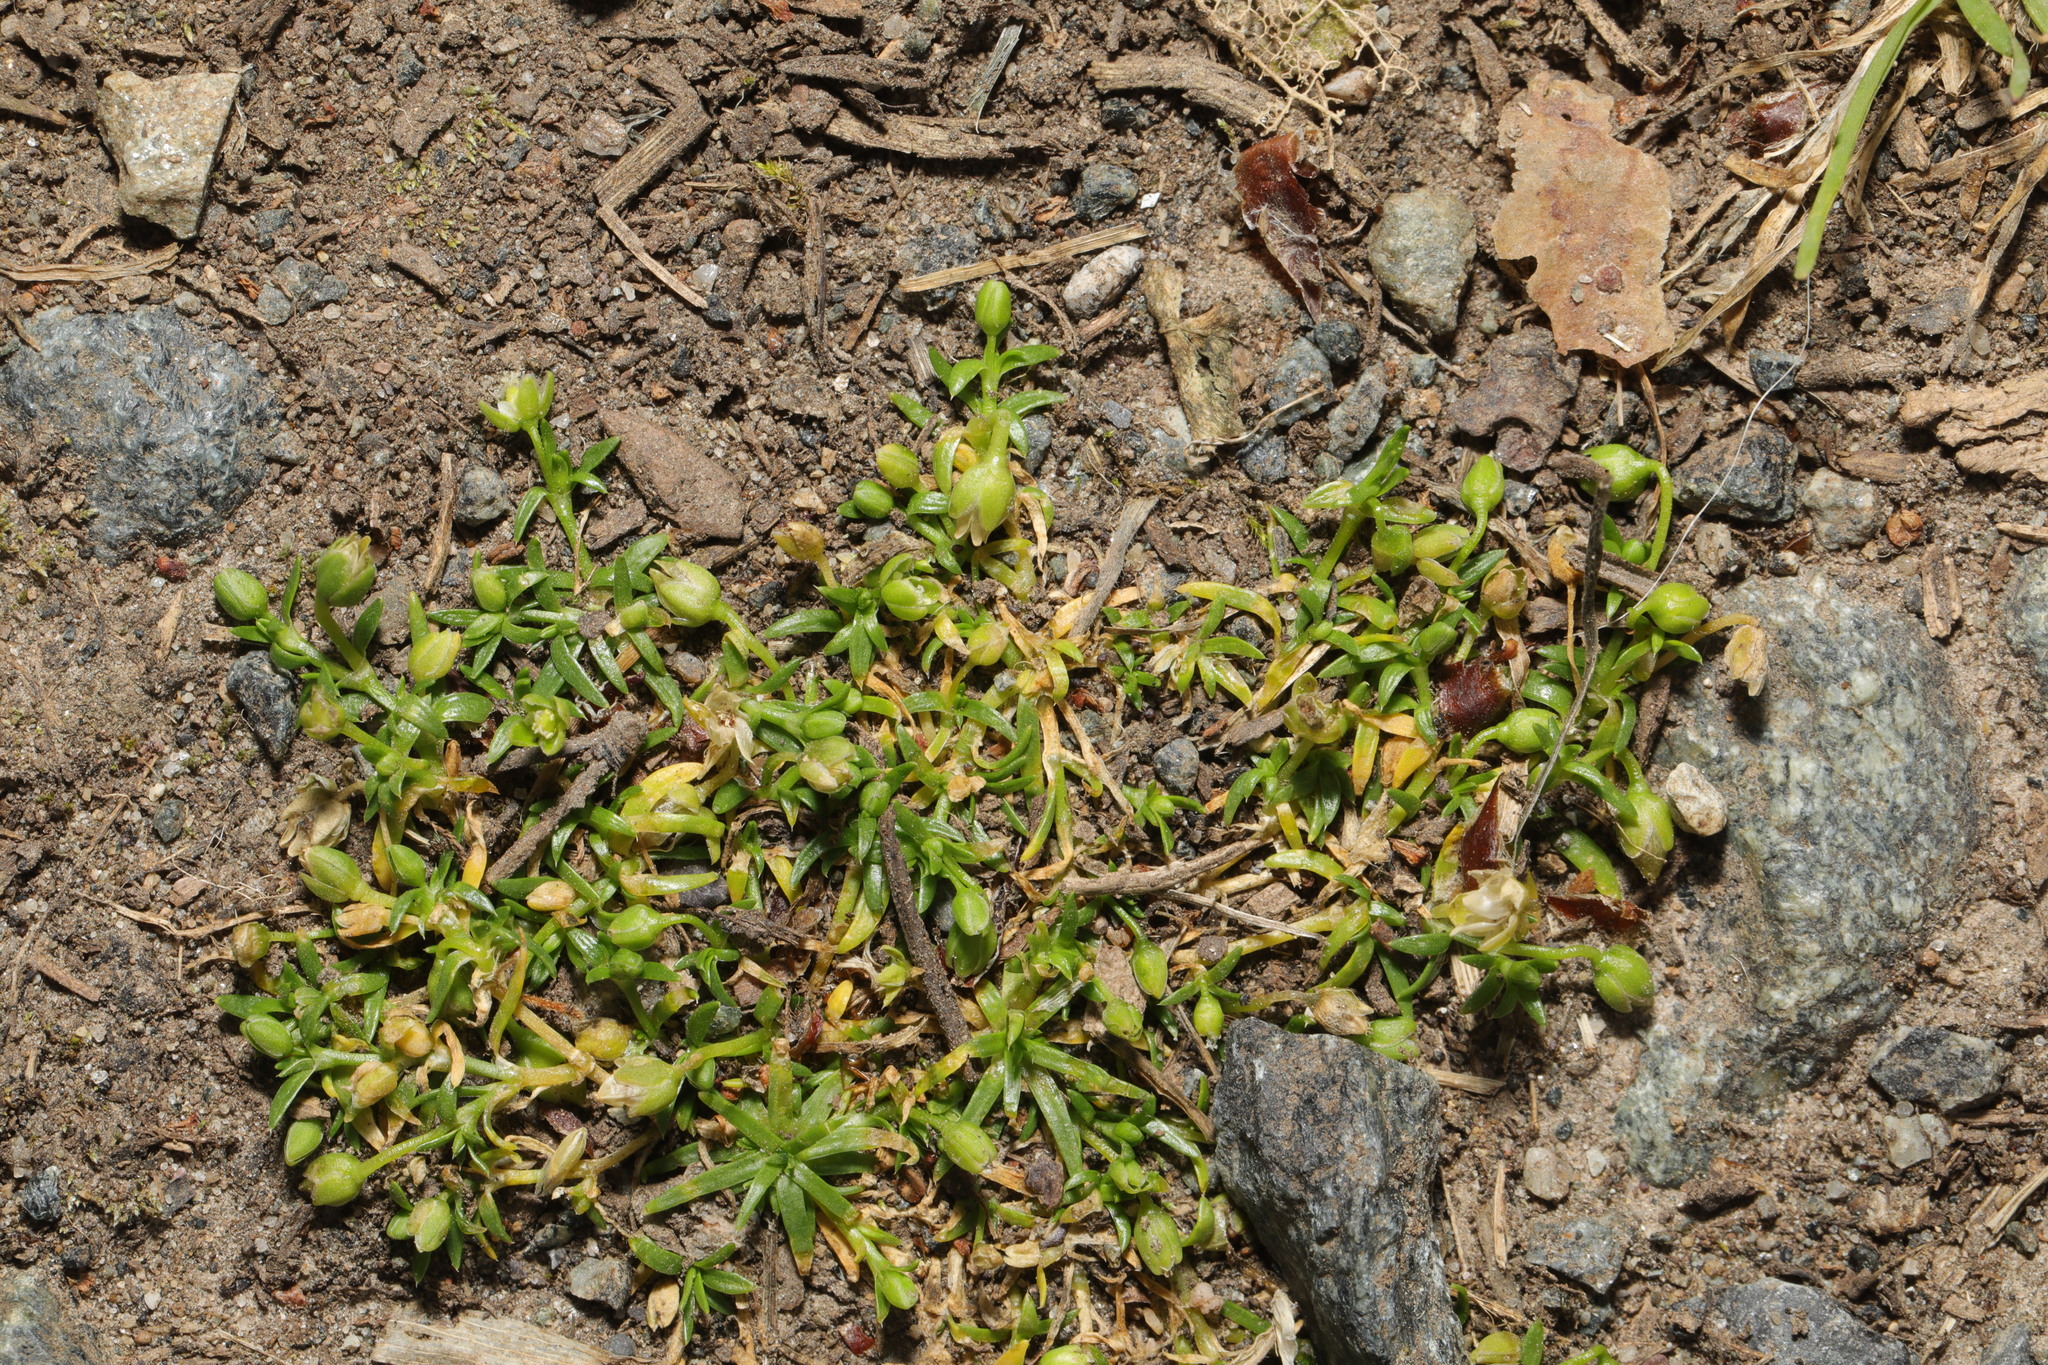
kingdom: Plantae
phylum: Tracheophyta
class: Magnoliopsida
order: Caryophyllales
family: Caryophyllaceae
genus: Sagina
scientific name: Sagina procumbens
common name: Procumbent pearlwort
